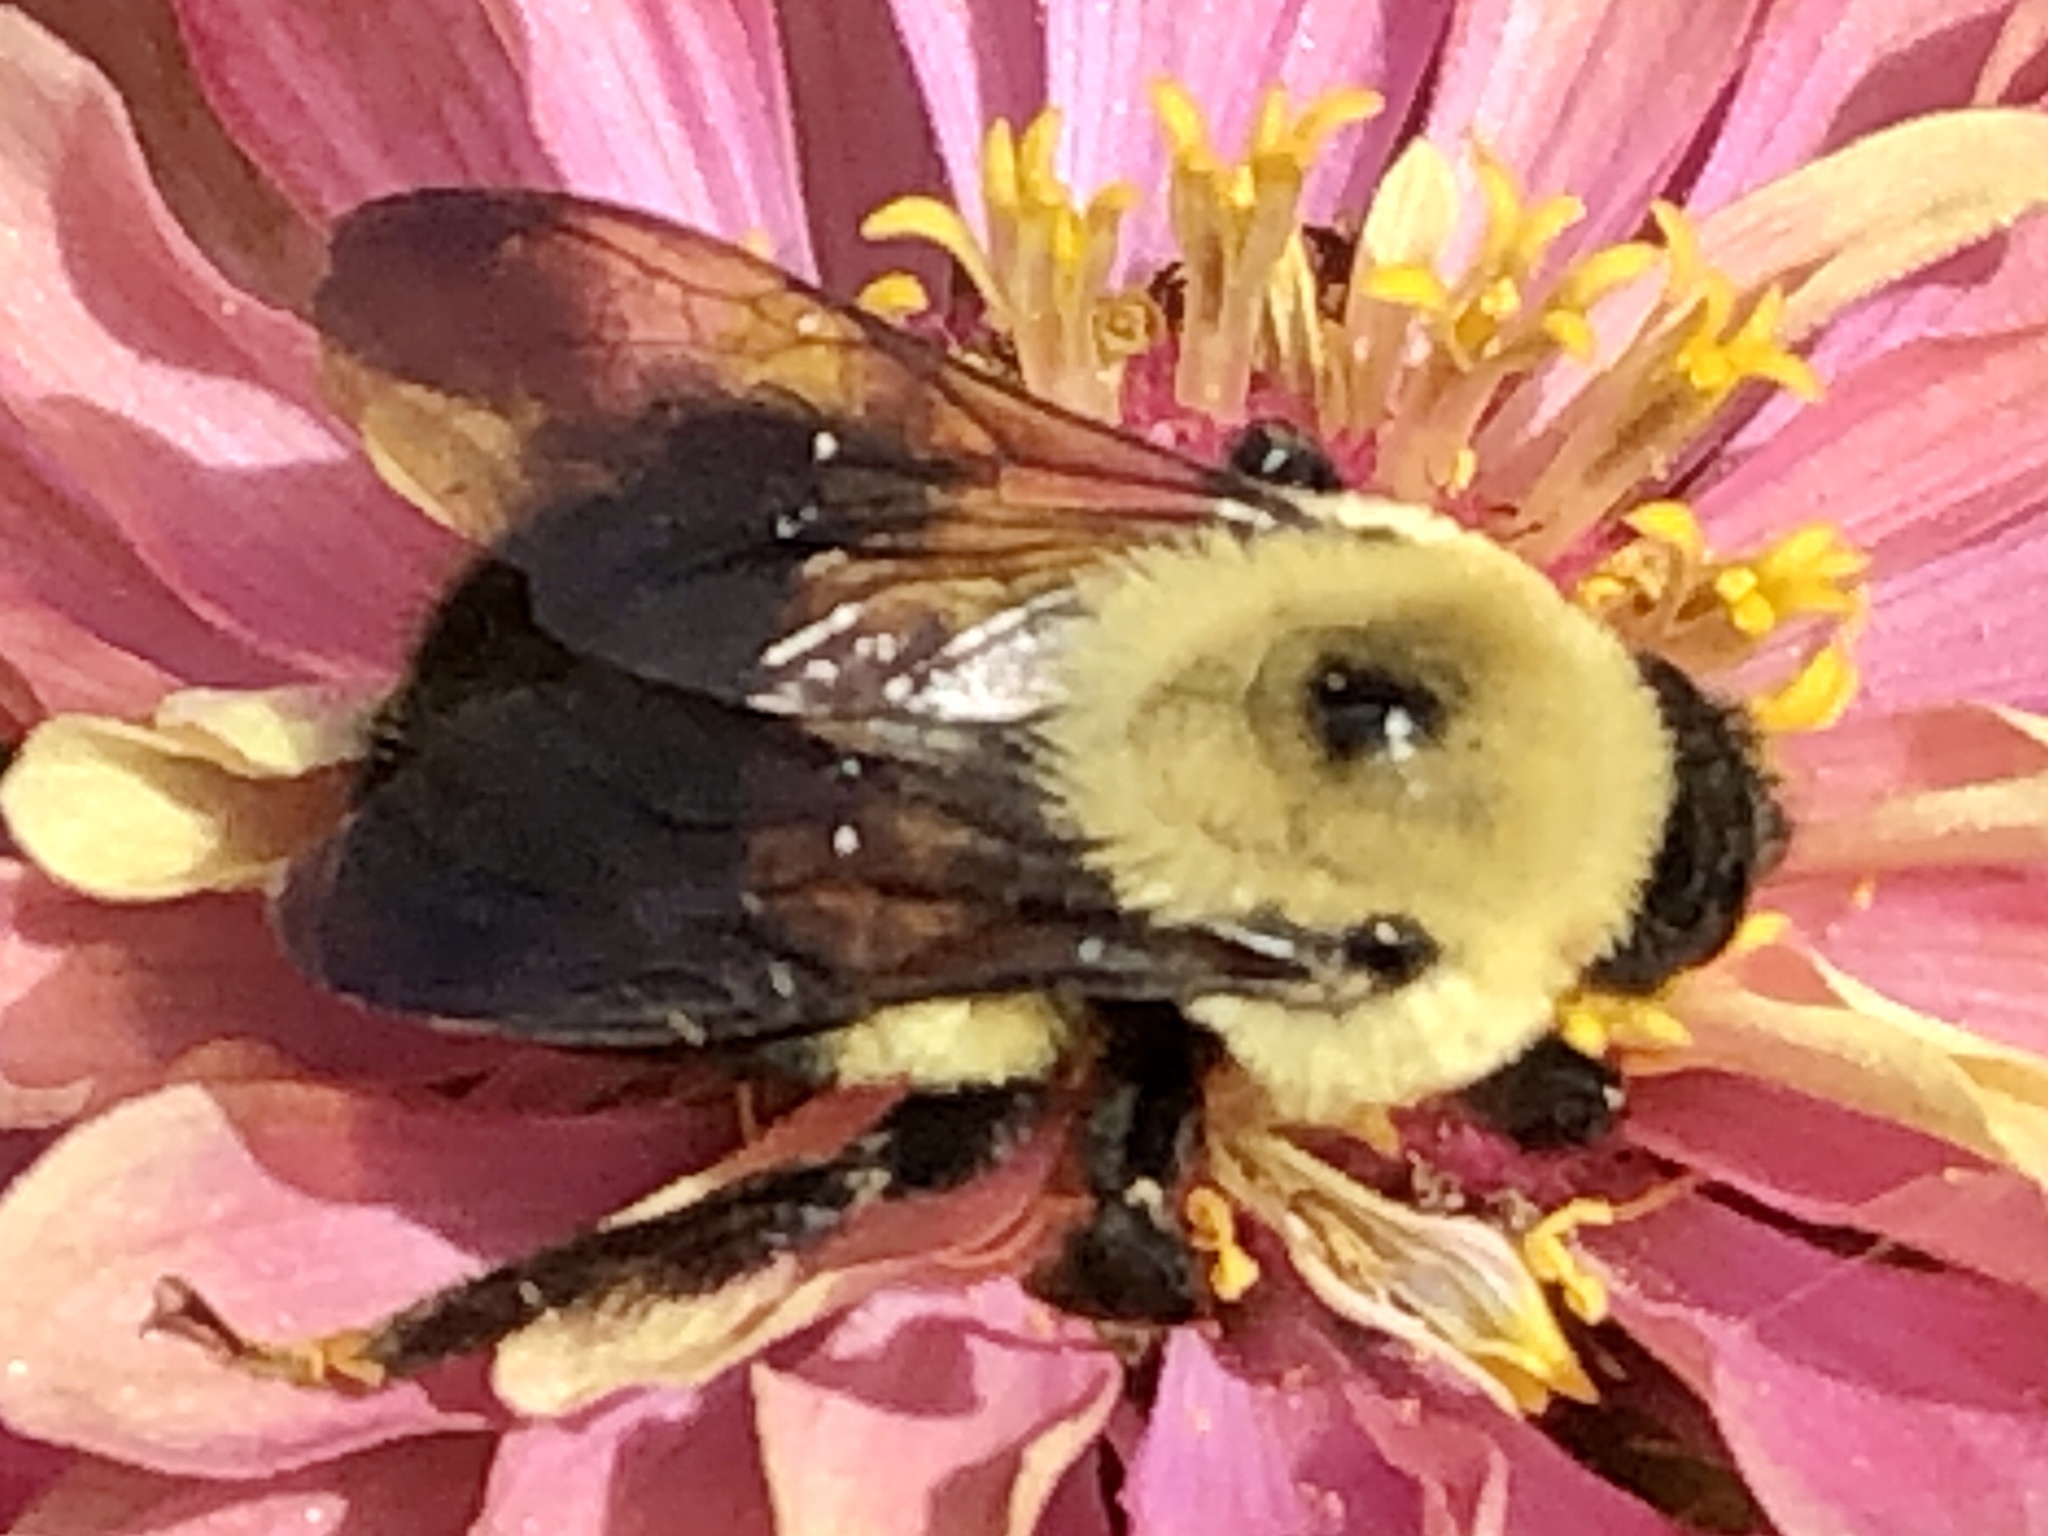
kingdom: Animalia
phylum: Arthropoda
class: Insecta
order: Hymenoptera
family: Apidae
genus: Bombus
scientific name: Bombus griseocollis
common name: Brown-belted bumble bee
